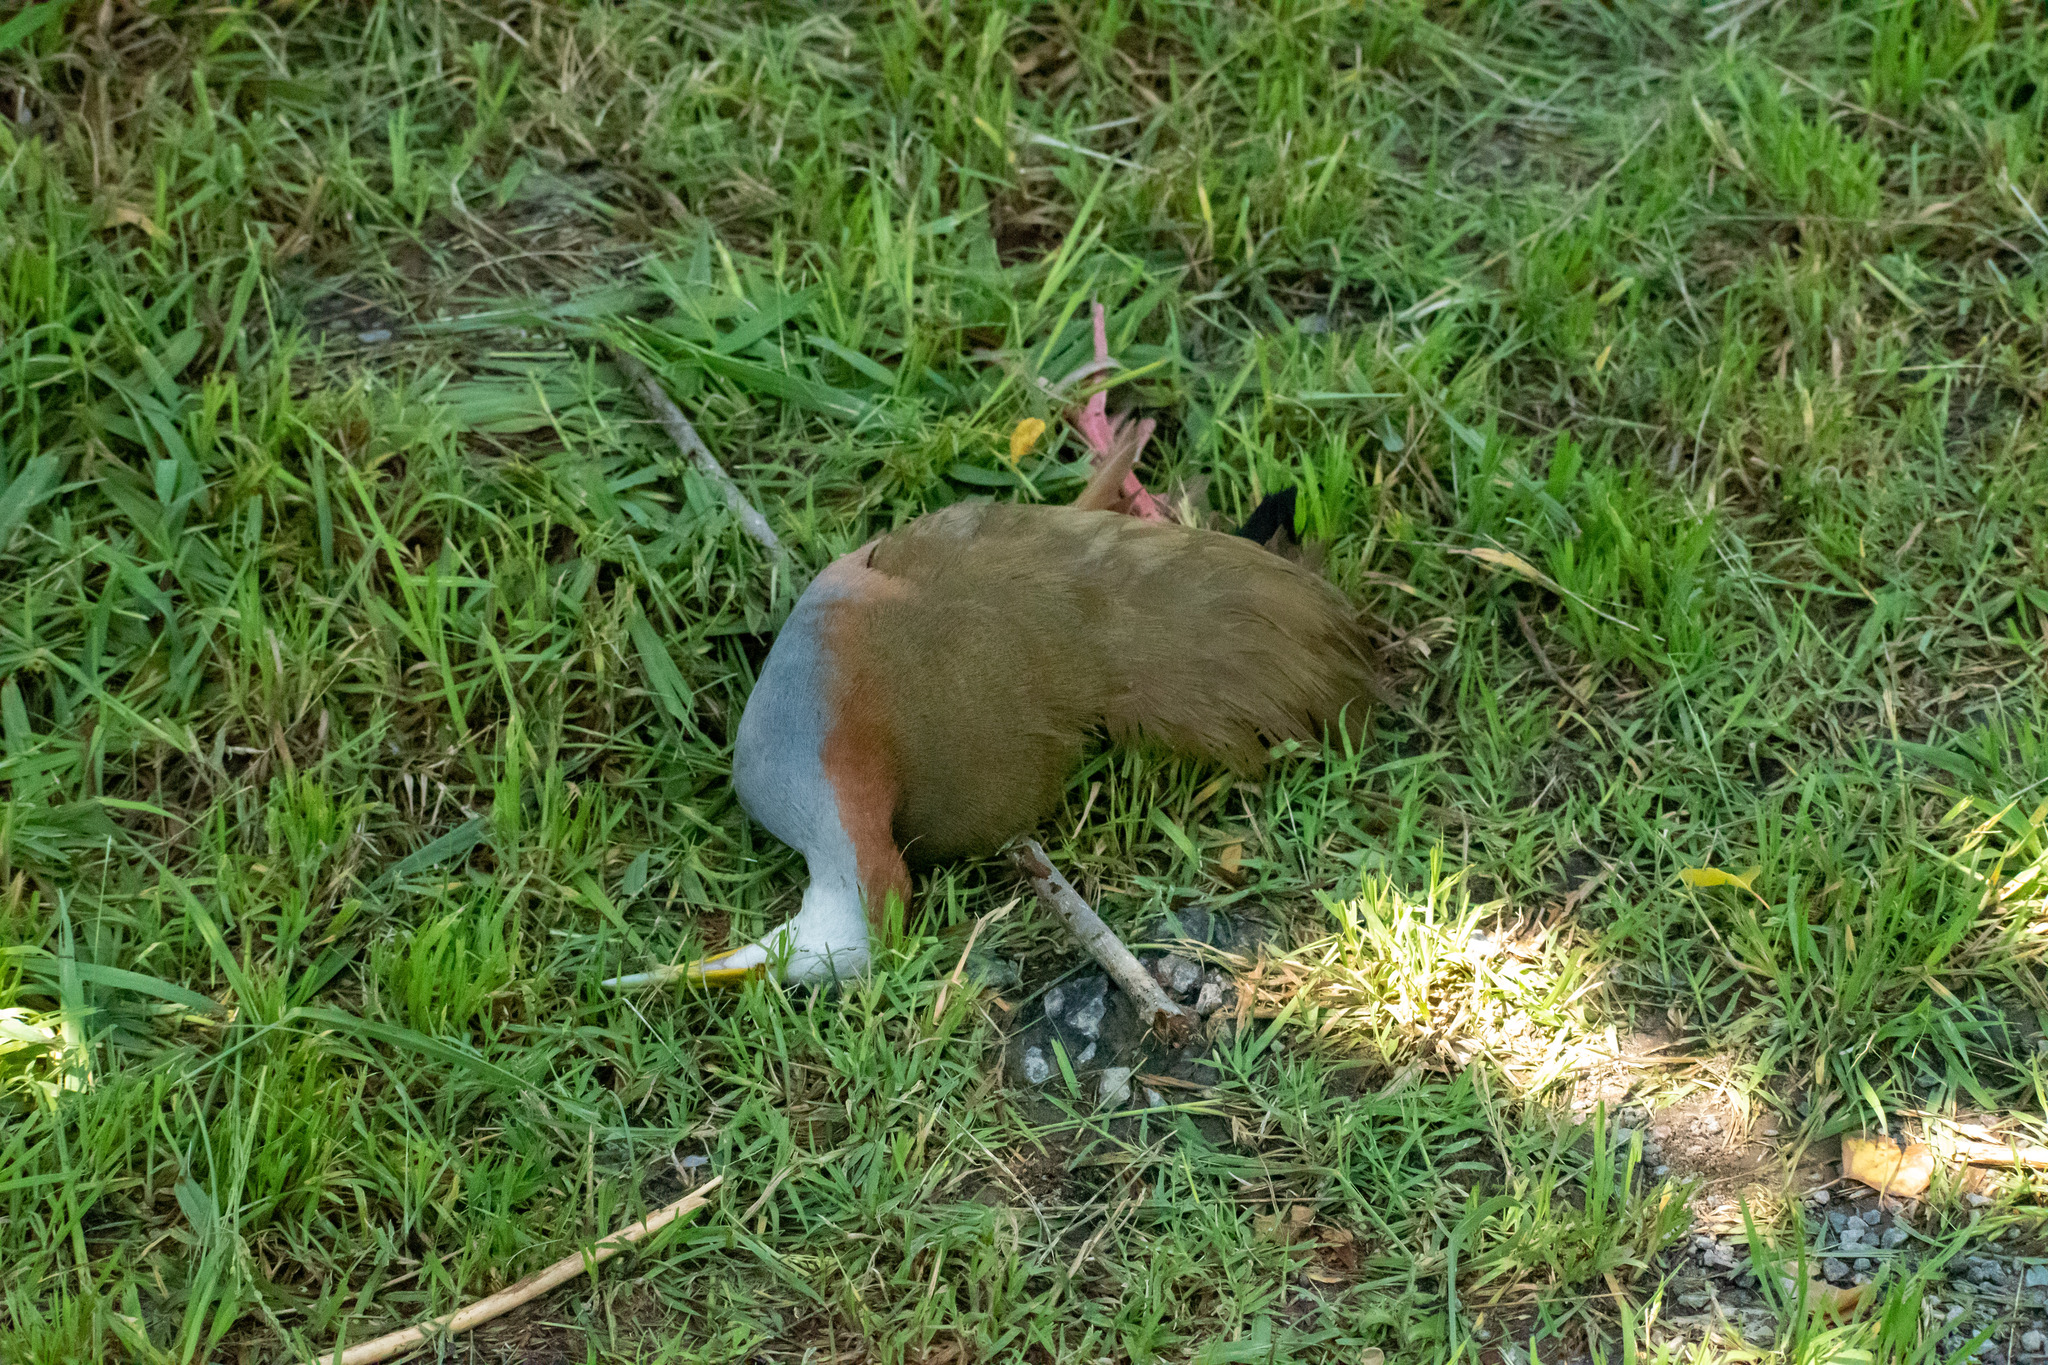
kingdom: Animalia
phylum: Chordata
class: Aves
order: Gruiformes
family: Rallidae
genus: Aramides
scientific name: Aramides ypecaha
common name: Giant wood rail
